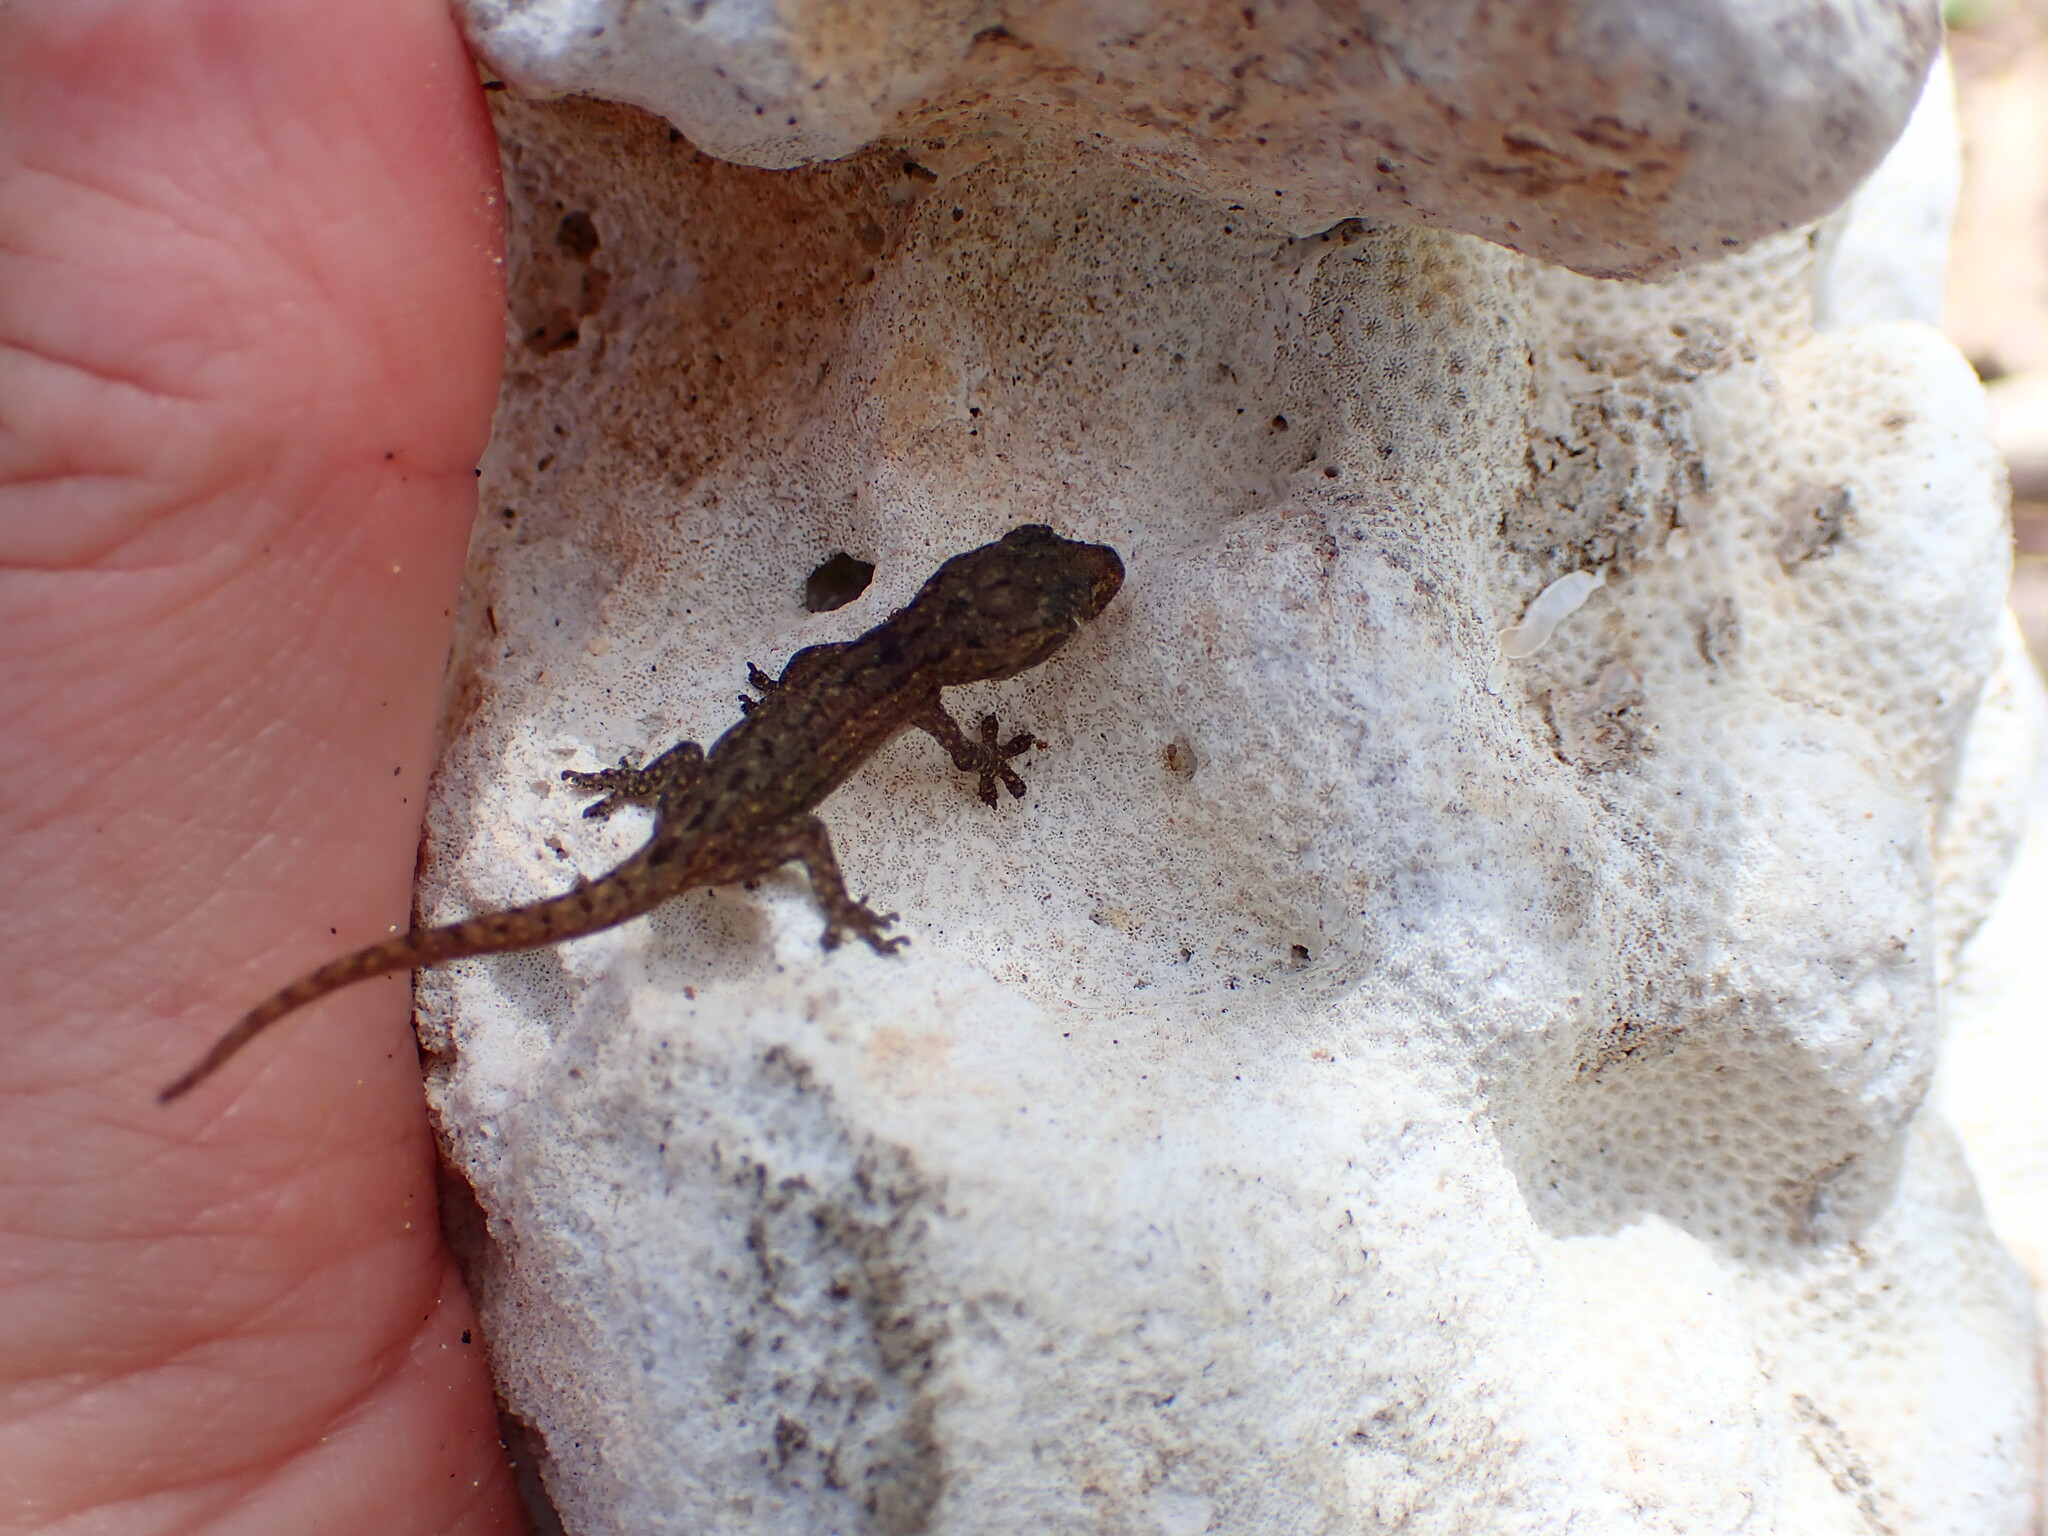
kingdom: Animalia
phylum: Chordata
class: Squamata
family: Gekkonidae
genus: Hemidactylus
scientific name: Hemidactylus frenatus
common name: Common house gecko
